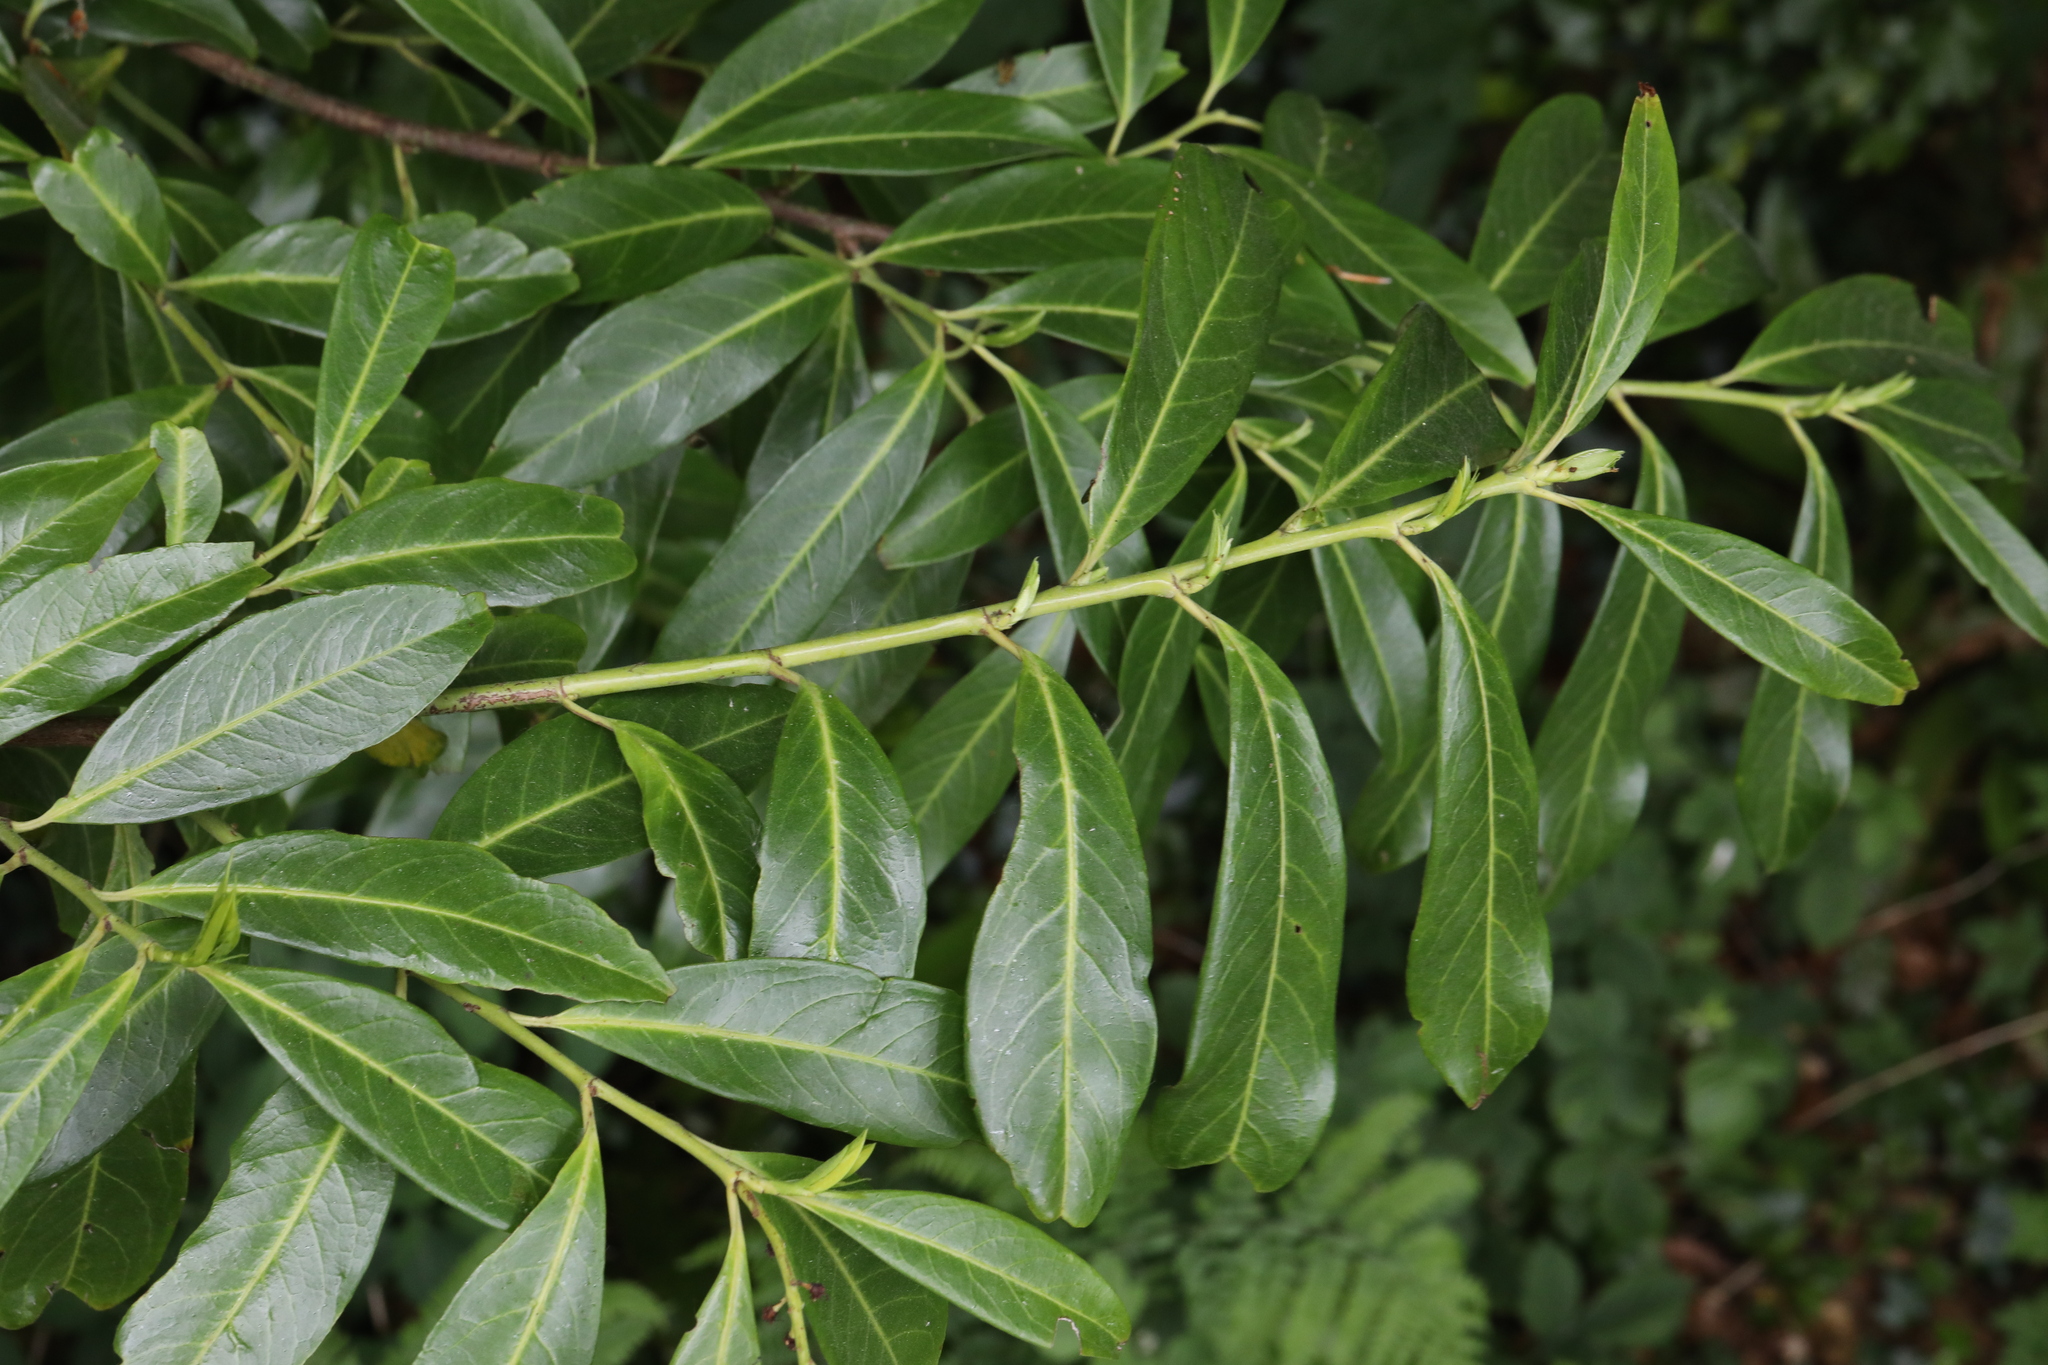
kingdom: Plantae
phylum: Tracheophyta
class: Magnoliopsida
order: Rosales
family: Rosaceae
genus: Prunus
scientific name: Prunus laurocerasus
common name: Cherry laurel
